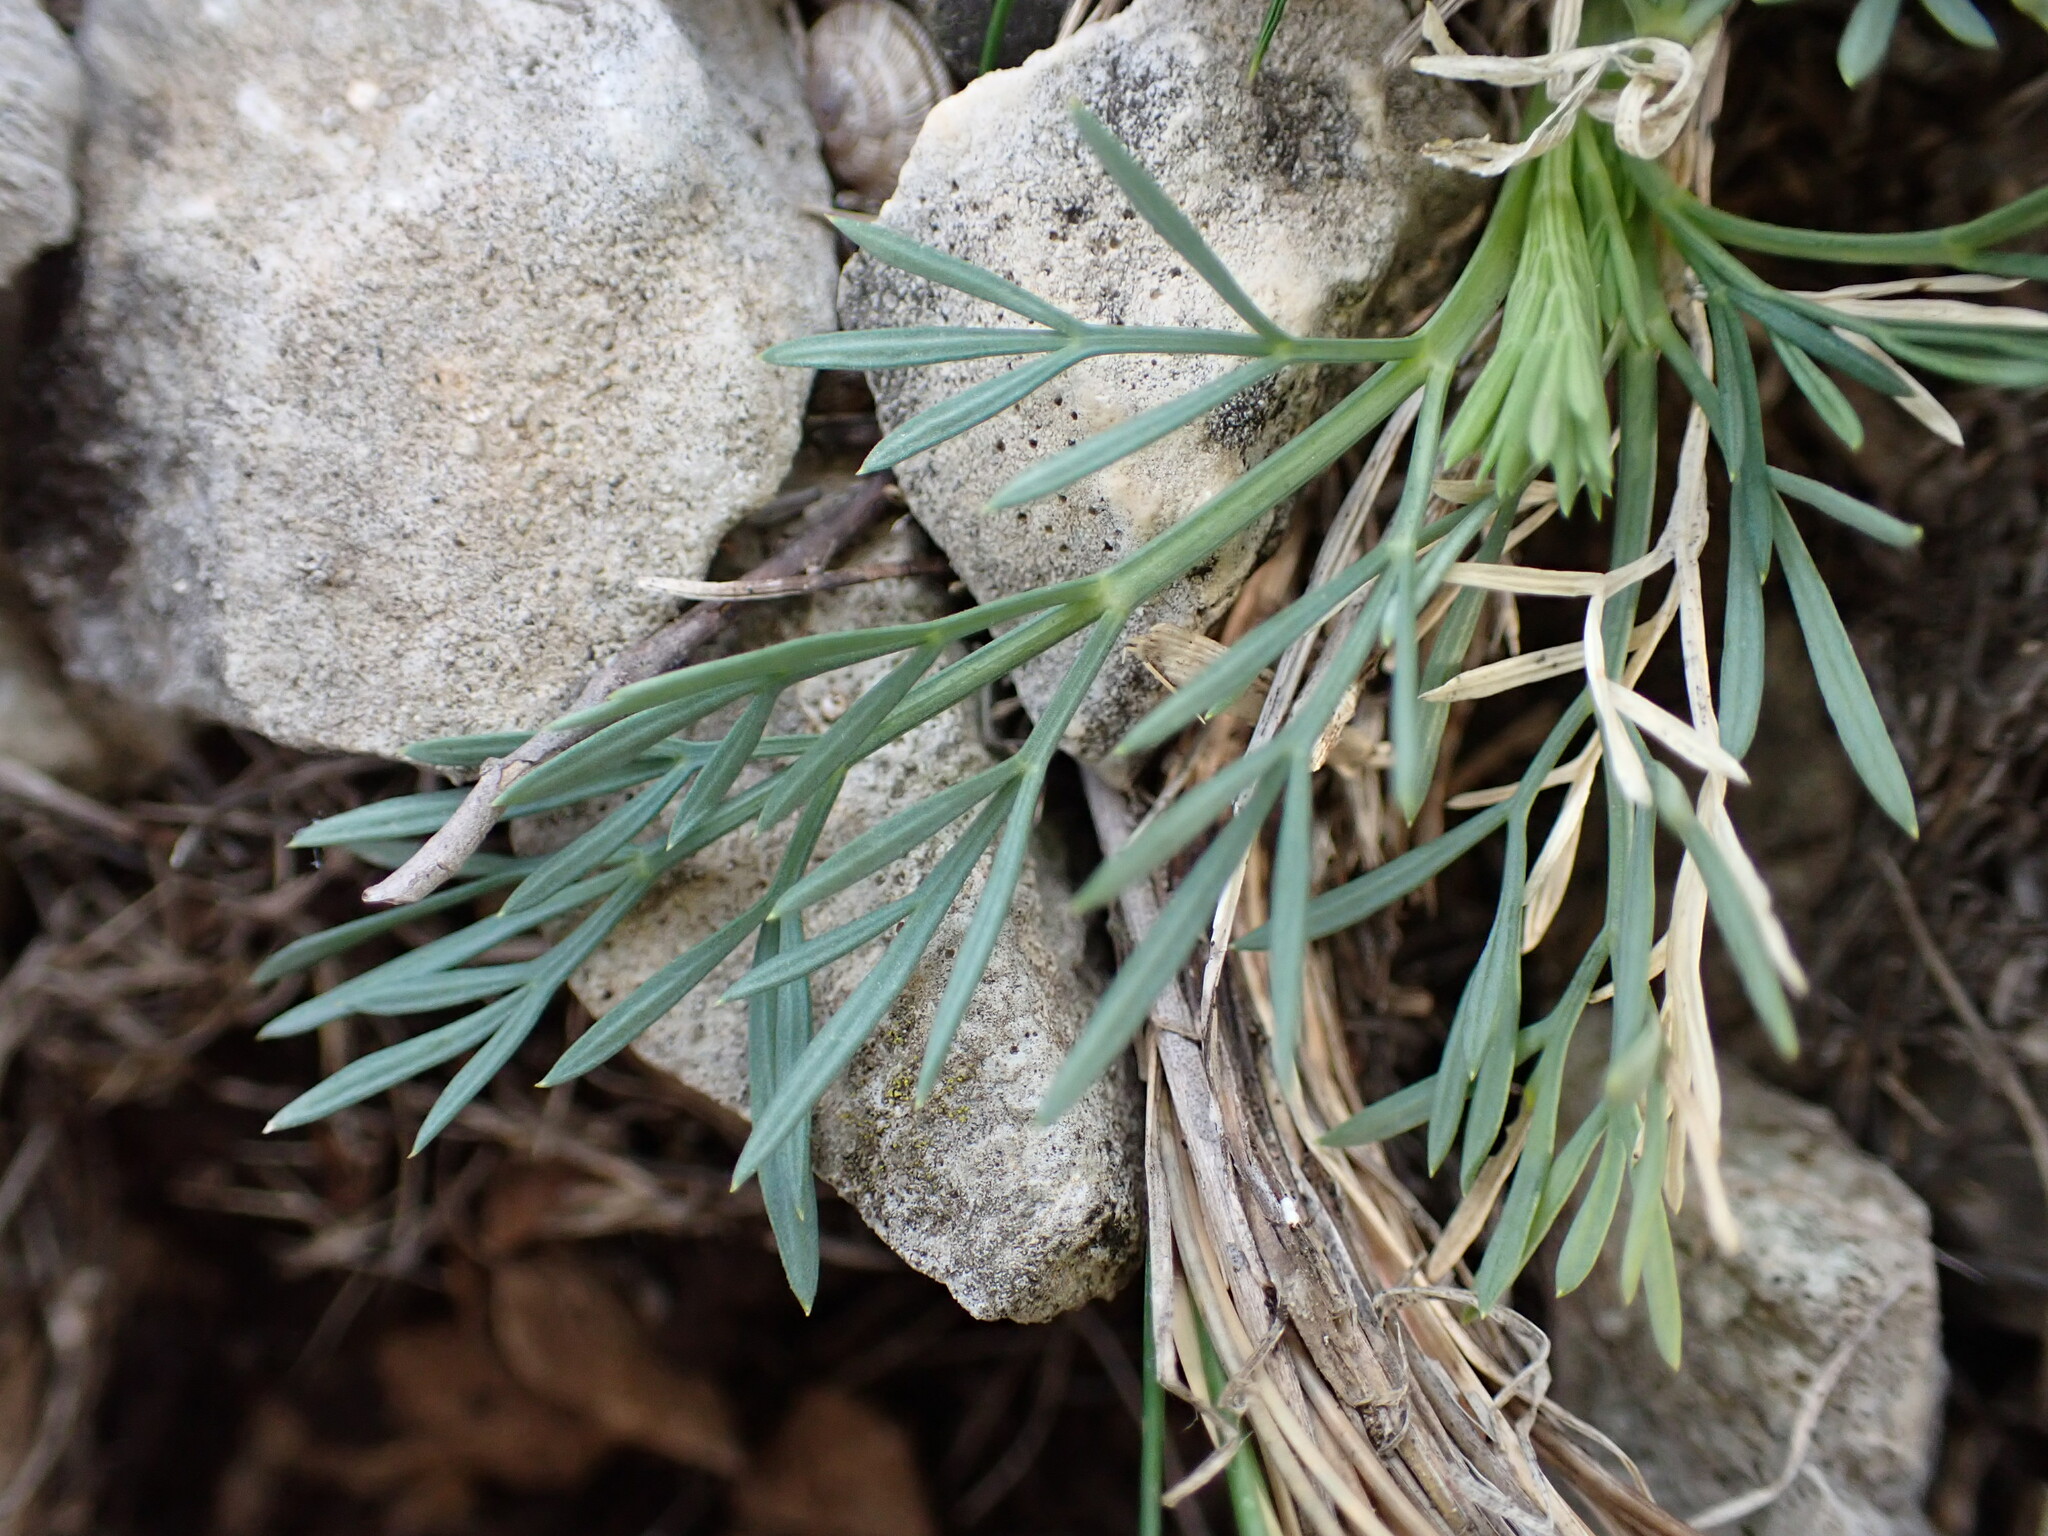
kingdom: Plantae
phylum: Tracheophyta
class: Magnoliopsida
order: Apiales
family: Apiaceae
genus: Seseli
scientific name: Seseli galloprovinciale
